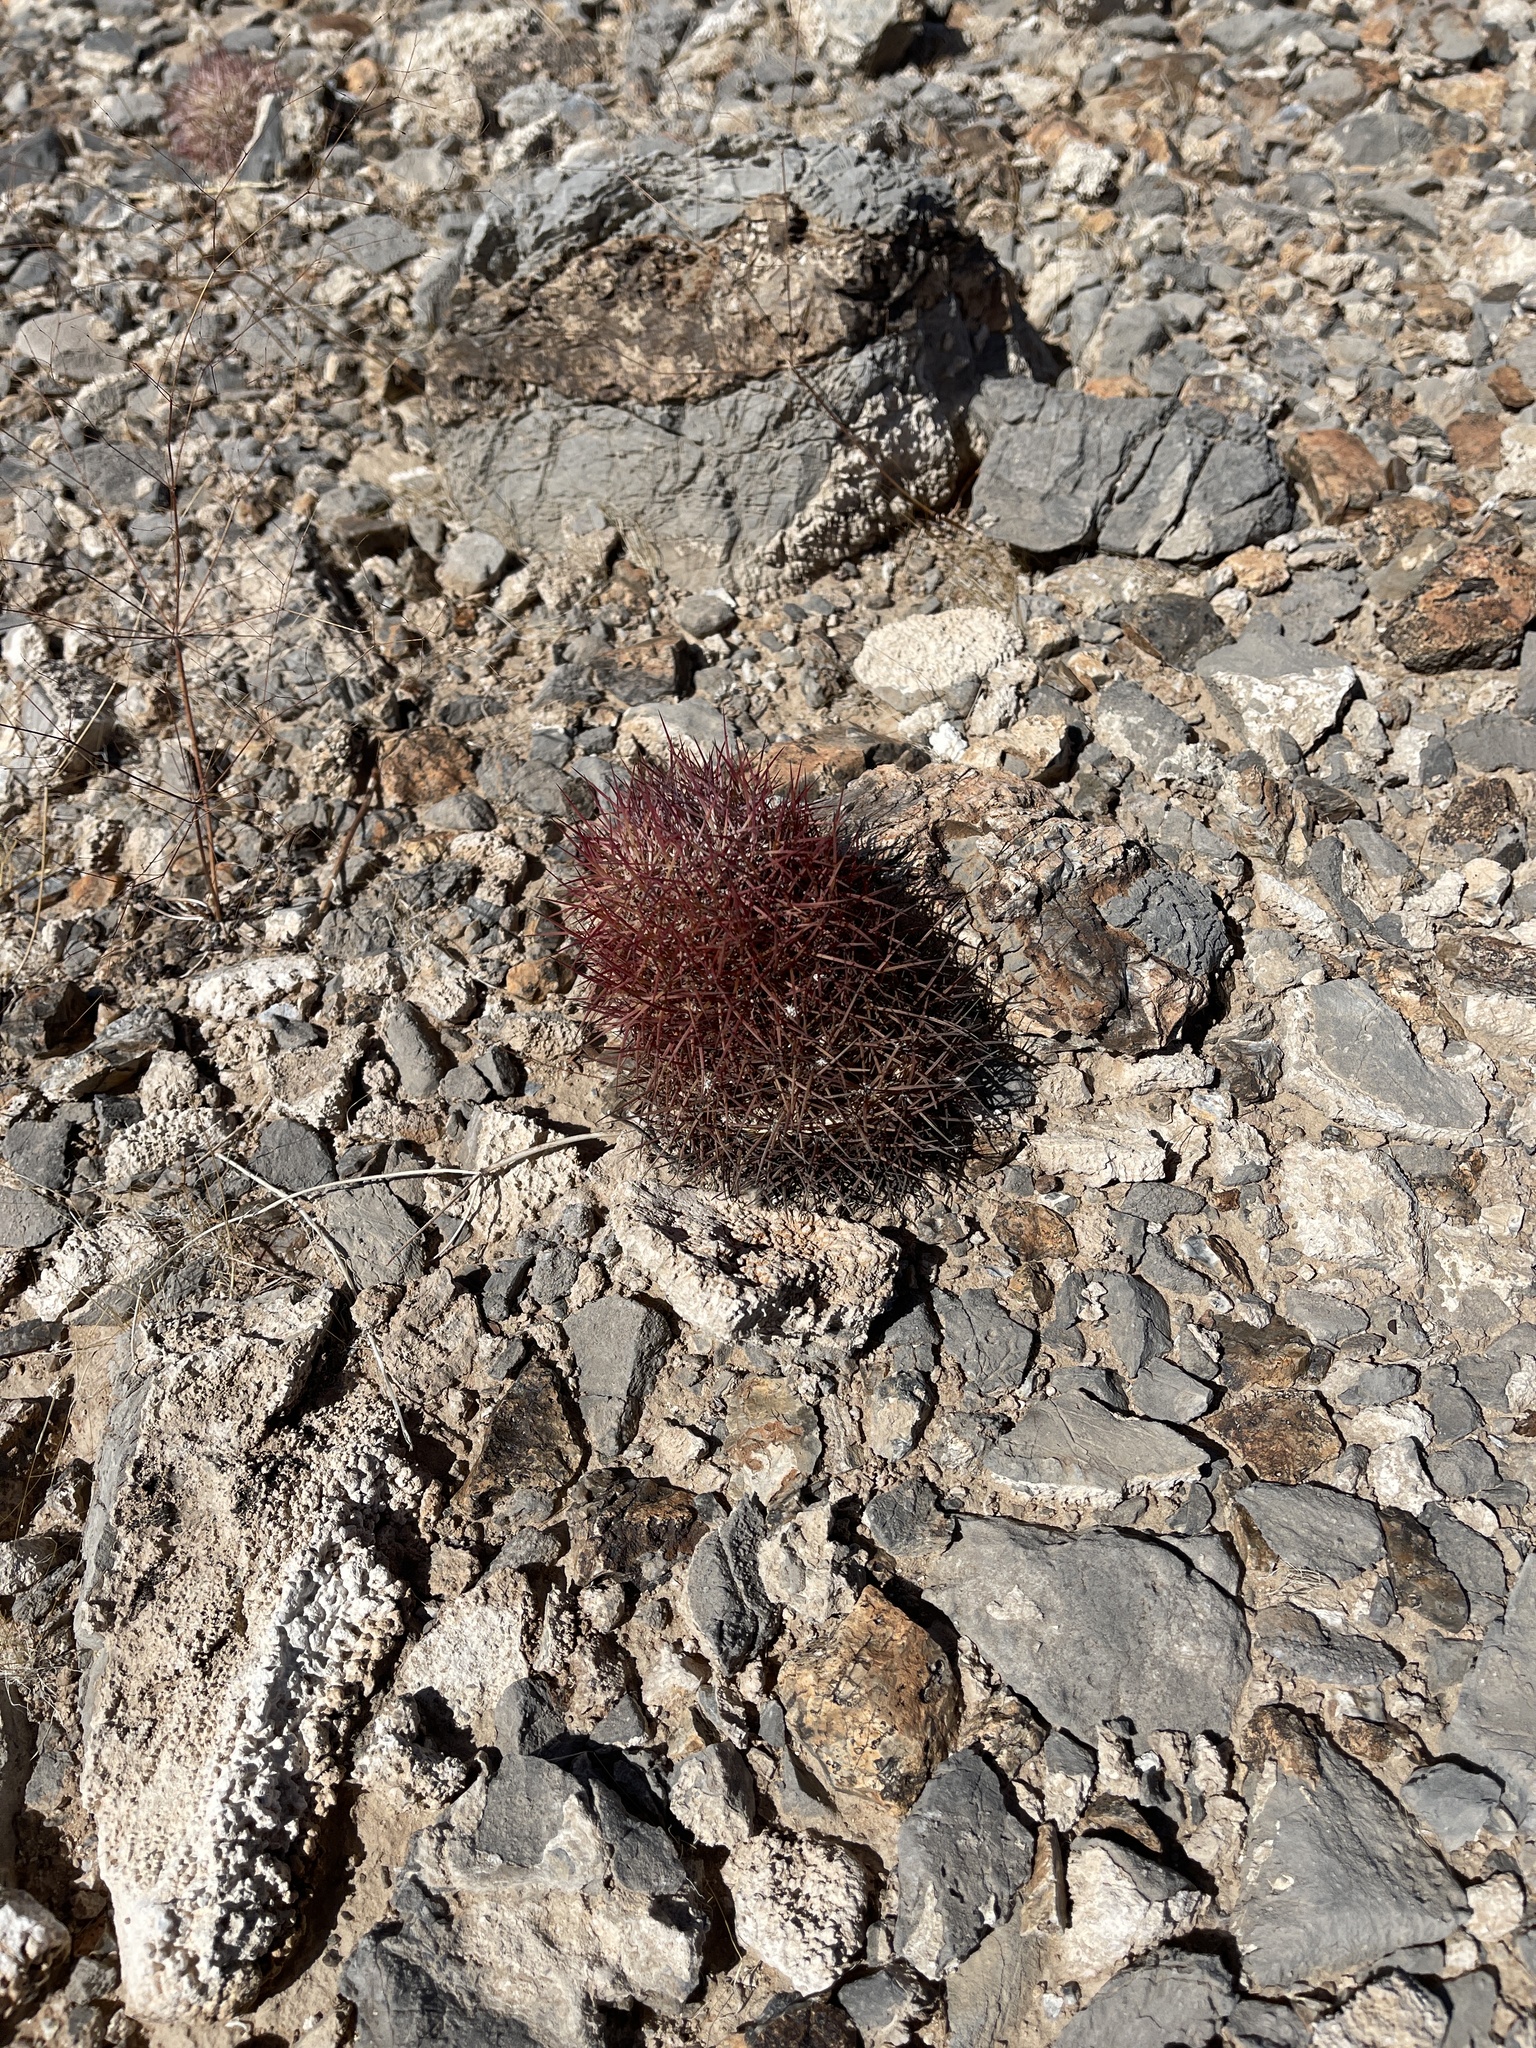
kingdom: Plantae
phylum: Tracheophyta
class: Magnoliopsida
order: Caryophyllales
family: Cactaceae
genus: Sclerocactus
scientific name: Sclerocactus johnsonii
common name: Eight-spine fishhook cactus
